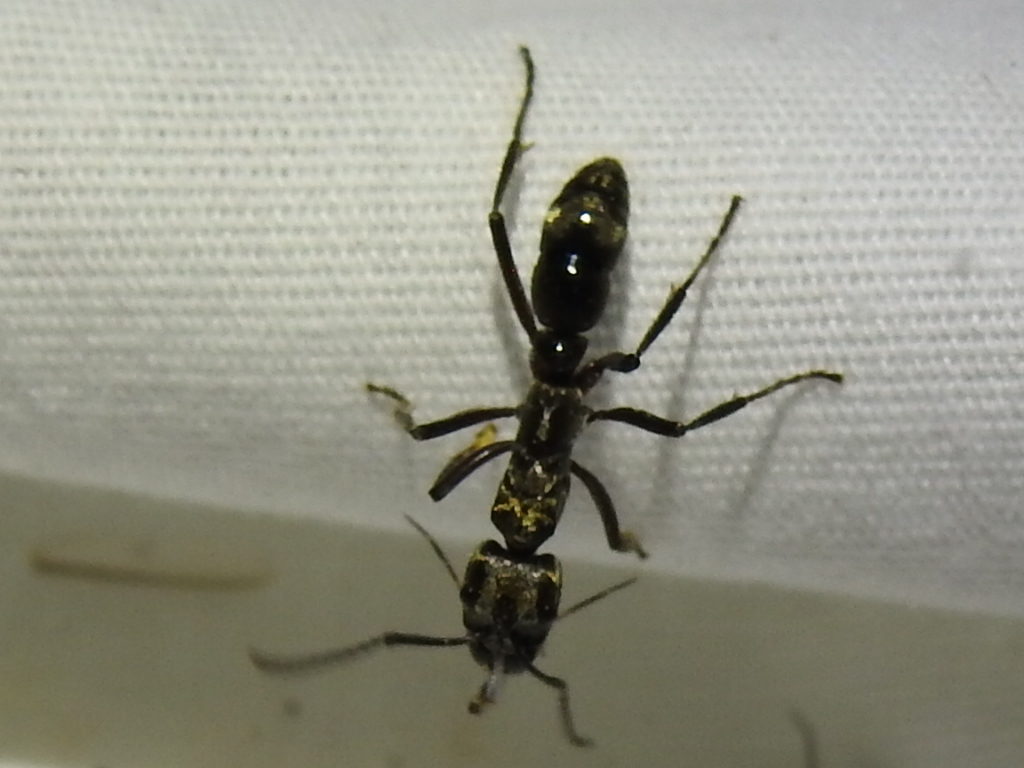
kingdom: Animalia
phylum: Arthropoda
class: Insecta
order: Hymenoptera
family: Formicidae
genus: Pachycondyla
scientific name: Pachycondyla villosa
